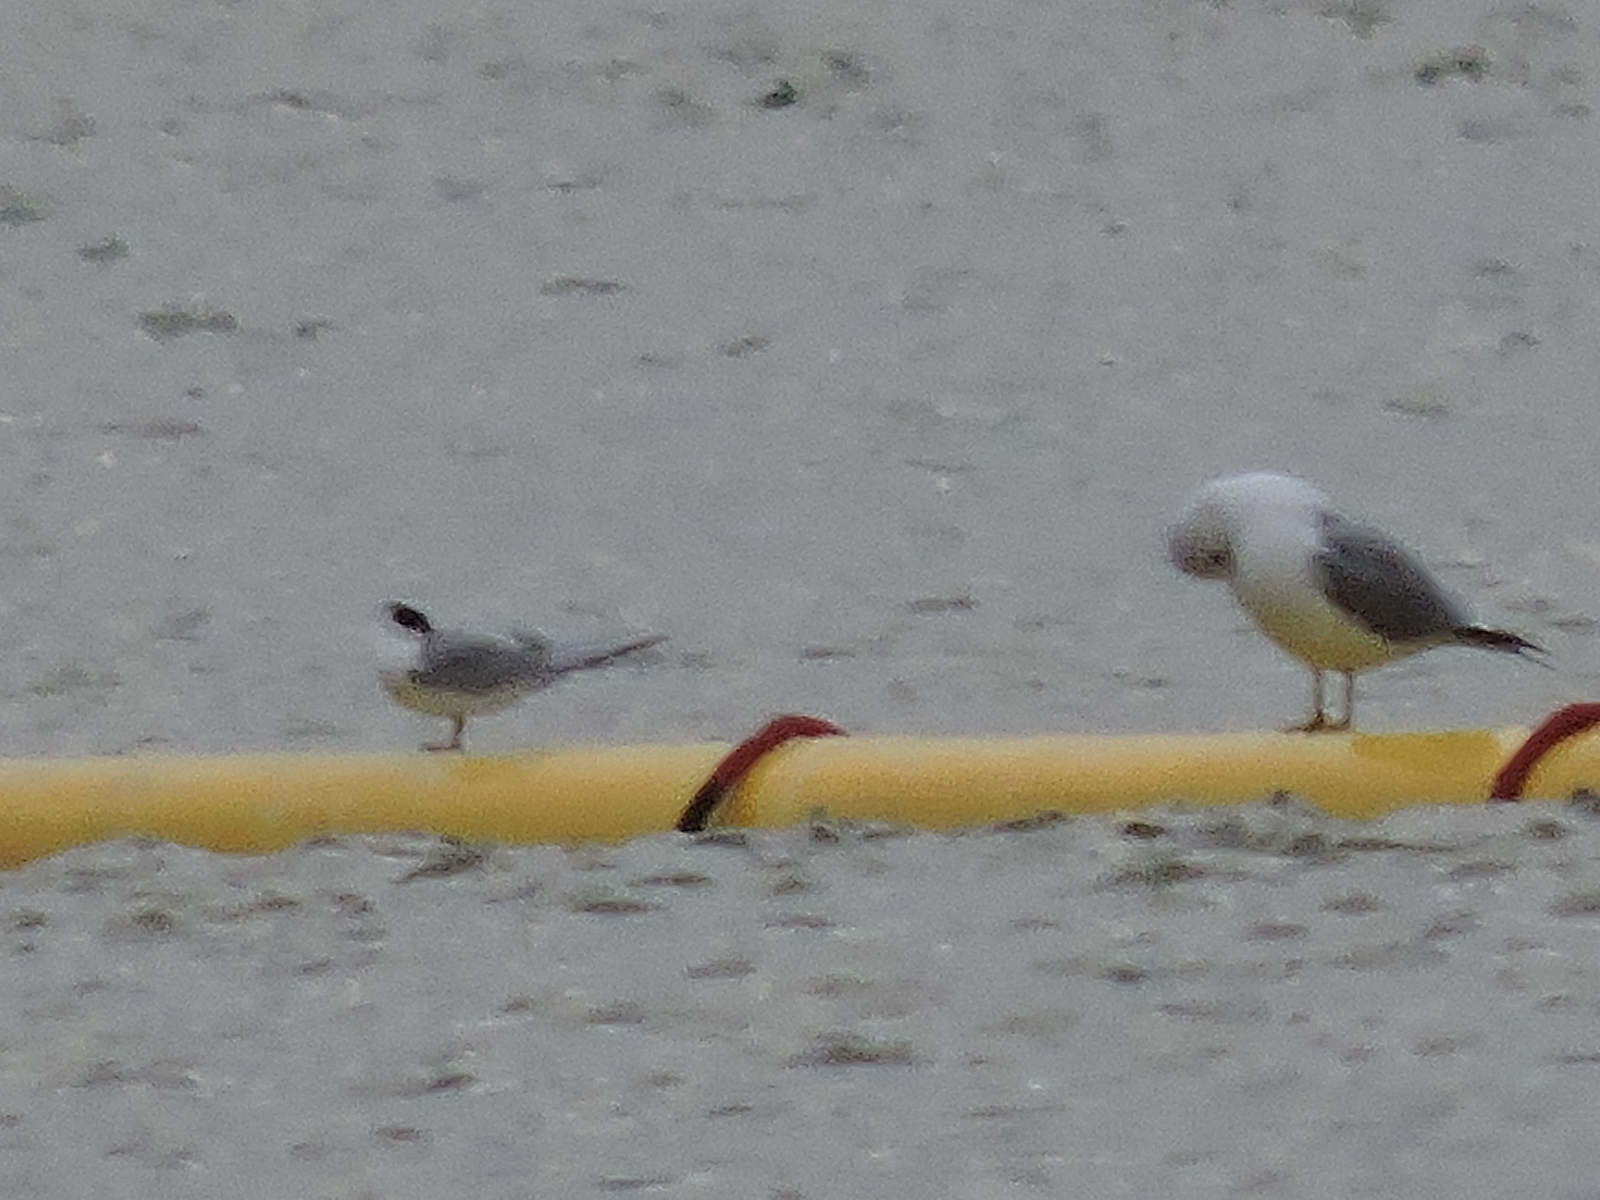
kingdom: Animalia
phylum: Chordata
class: Aves
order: Charadriiformes
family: Laridae
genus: Sterna
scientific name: Sterna forsteri
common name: Forster's tern
